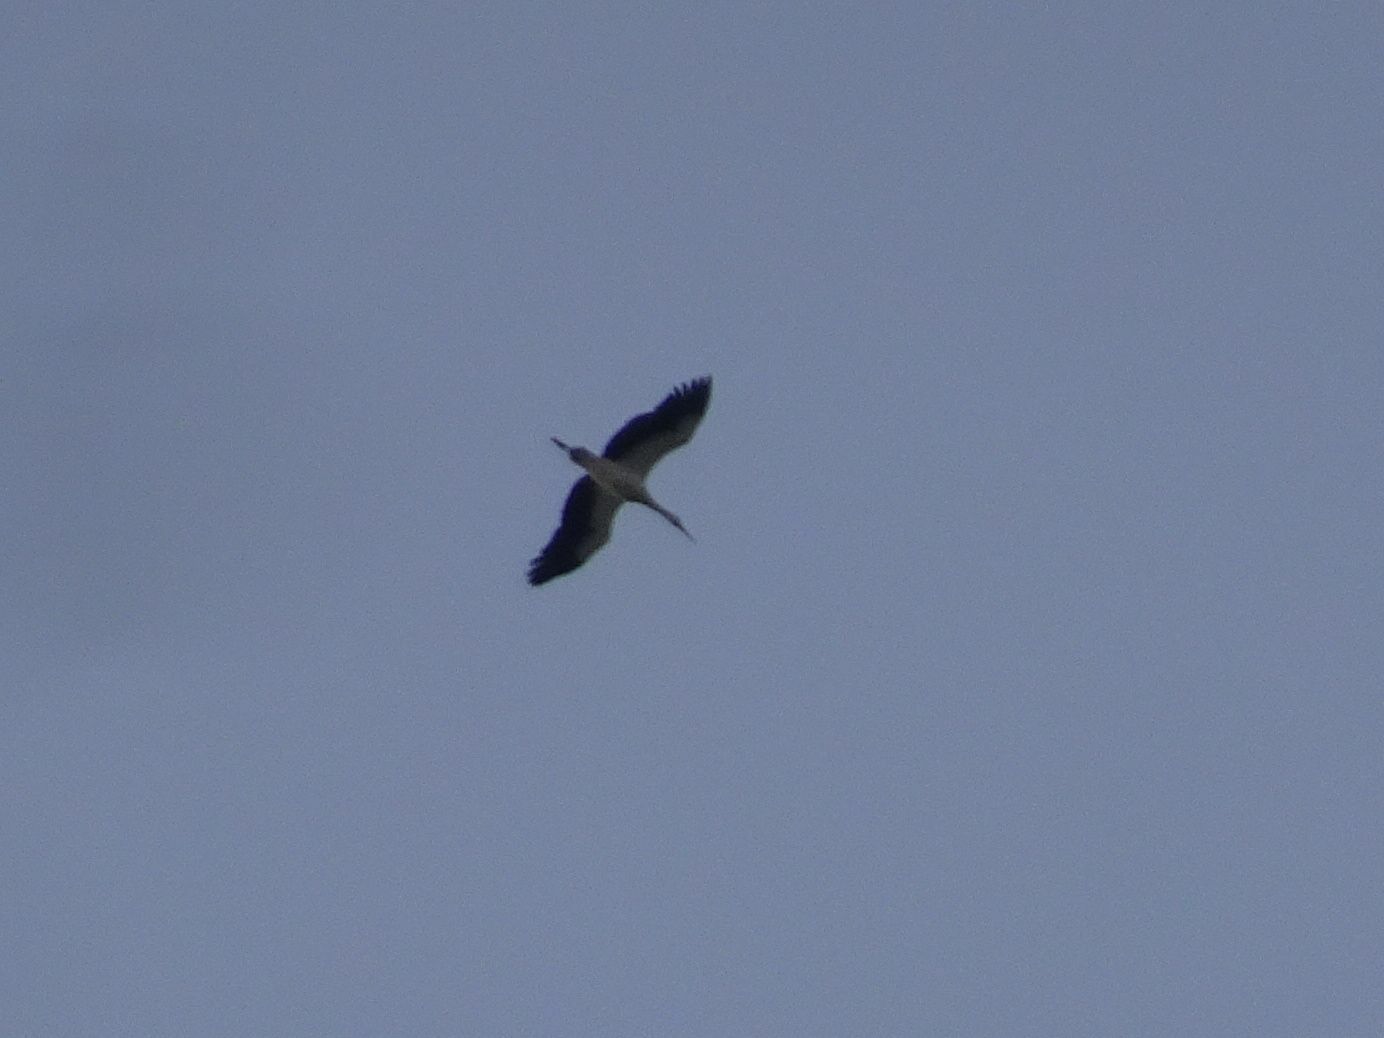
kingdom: Animalia
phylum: Chordata
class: Aves
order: Ciconiiformes
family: Ciconiidae
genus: Ciconia
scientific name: Ciconia ciconia
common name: White stork
